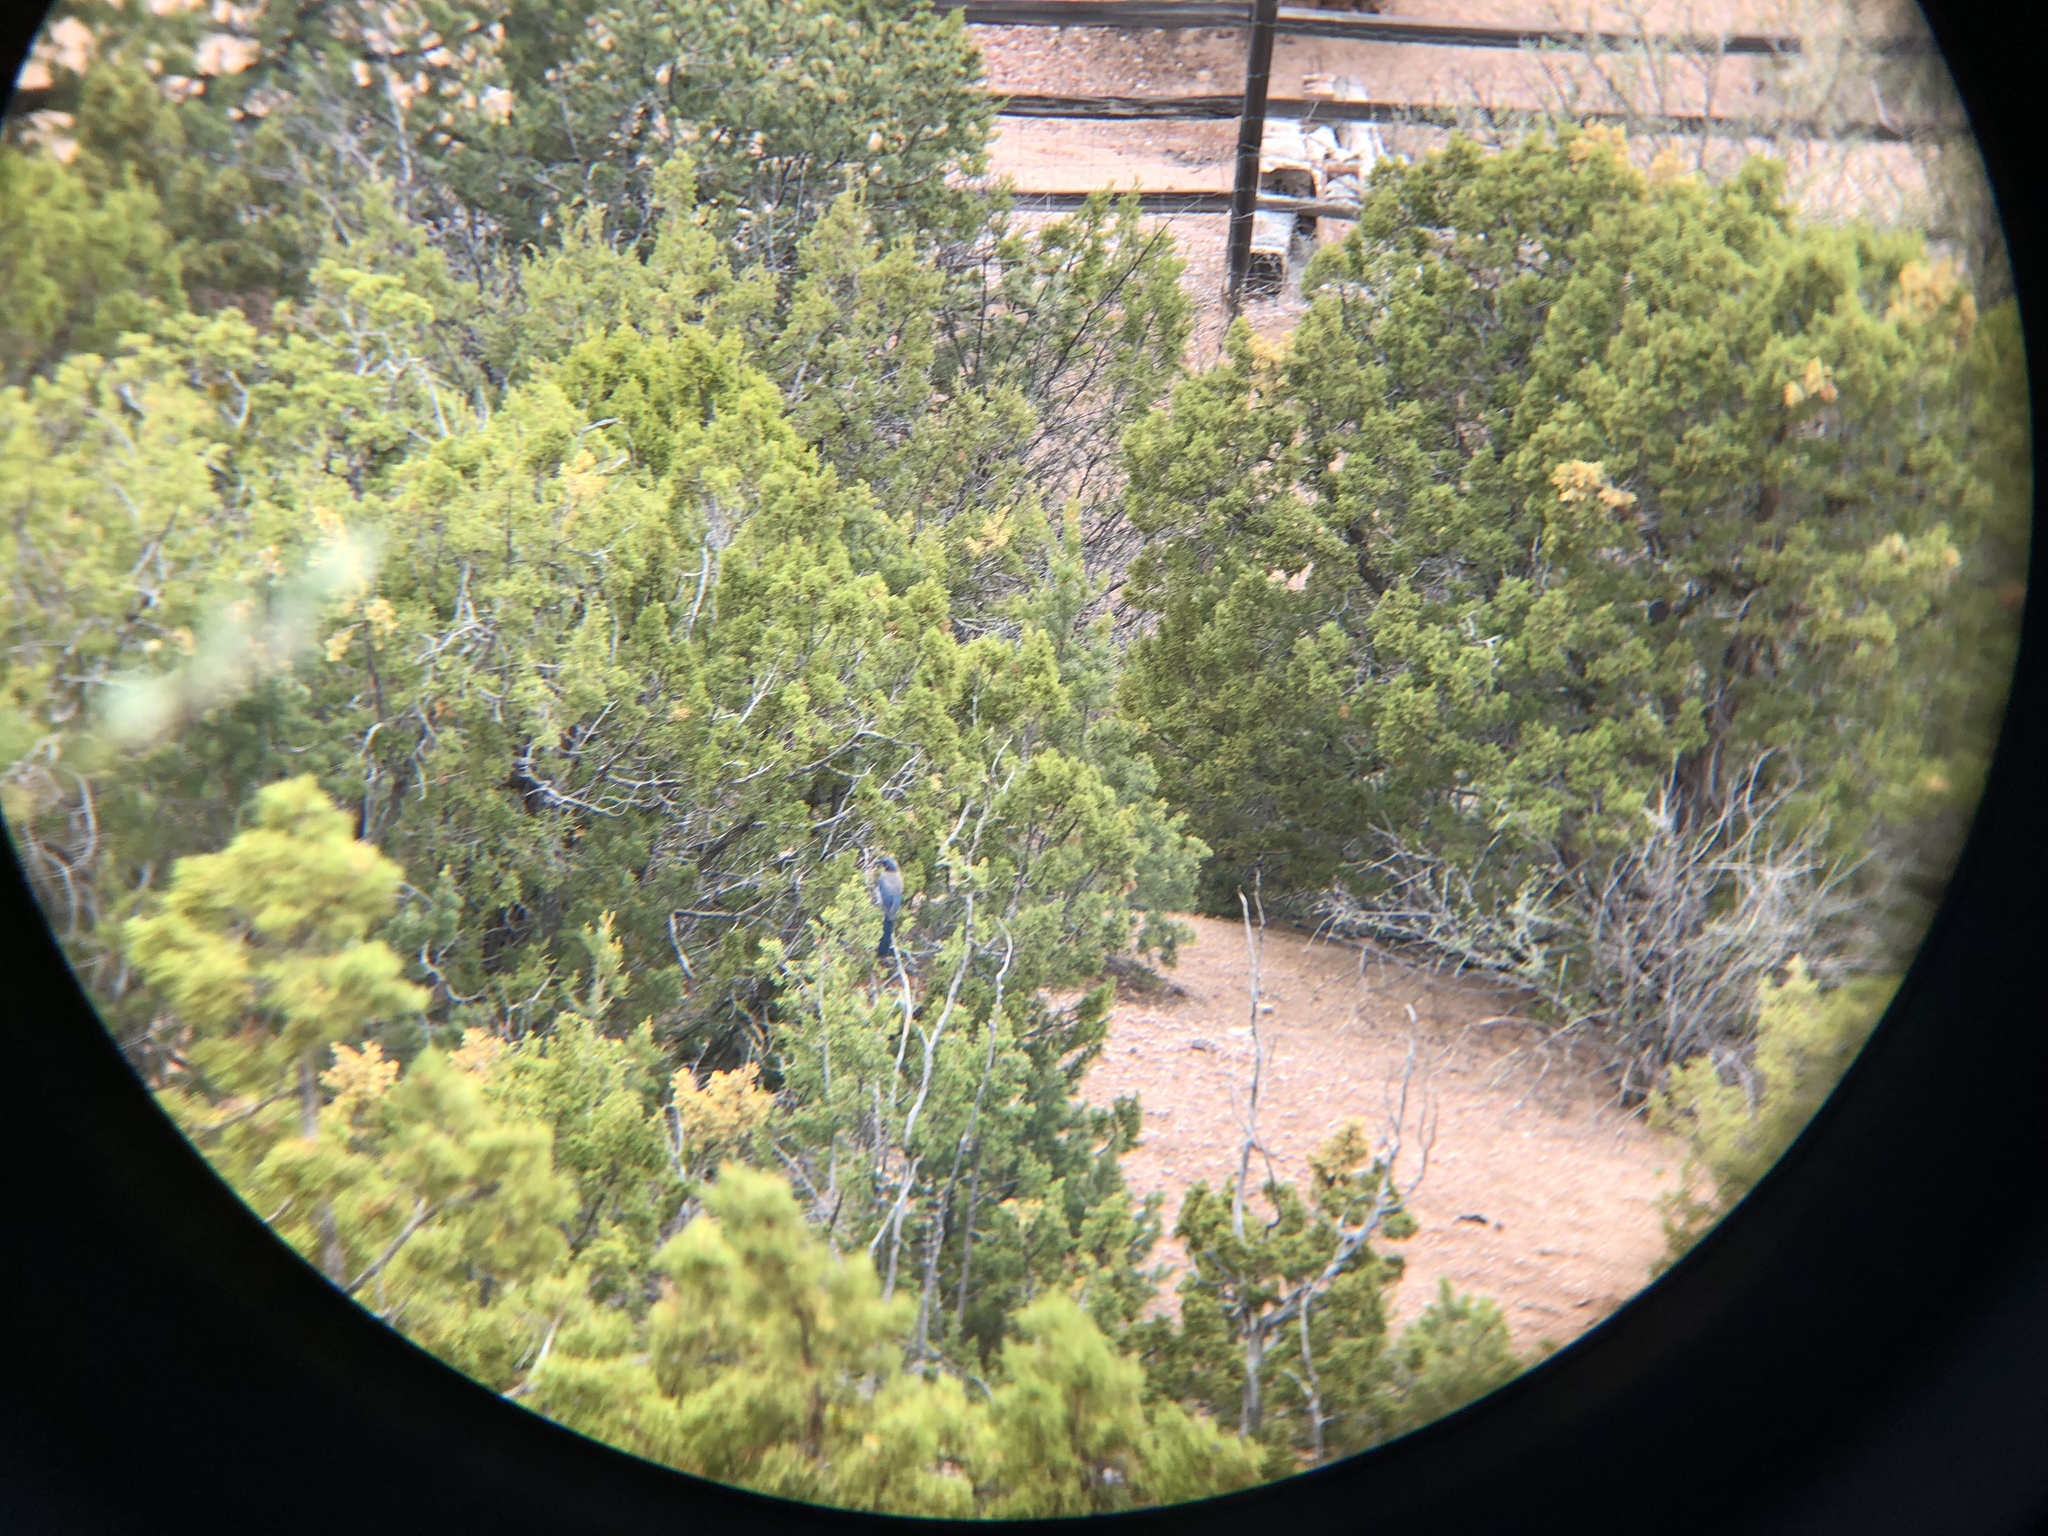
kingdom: Animalia
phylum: Chordata
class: Aves
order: Passeriformes
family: Corvidae
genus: Aphelocoma
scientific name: Aphelocoma woodhouseii
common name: Woodhouse's scrub-jay
